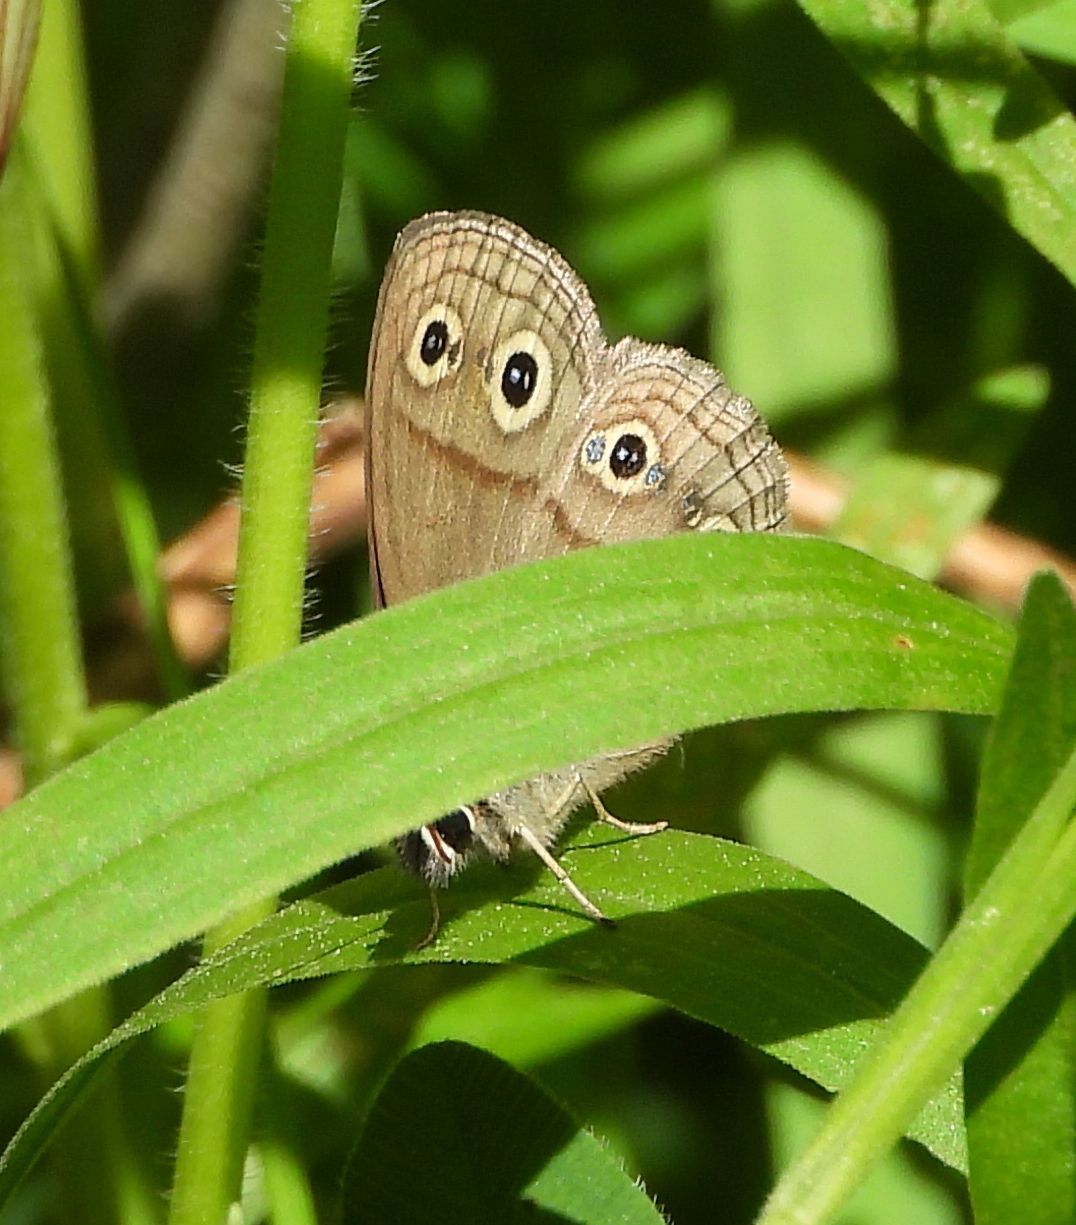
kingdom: Animalia
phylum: Arthropoda
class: Insecta
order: Lepidoptera
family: Nymphalidae
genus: Euptychia
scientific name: Euptychia cymela
